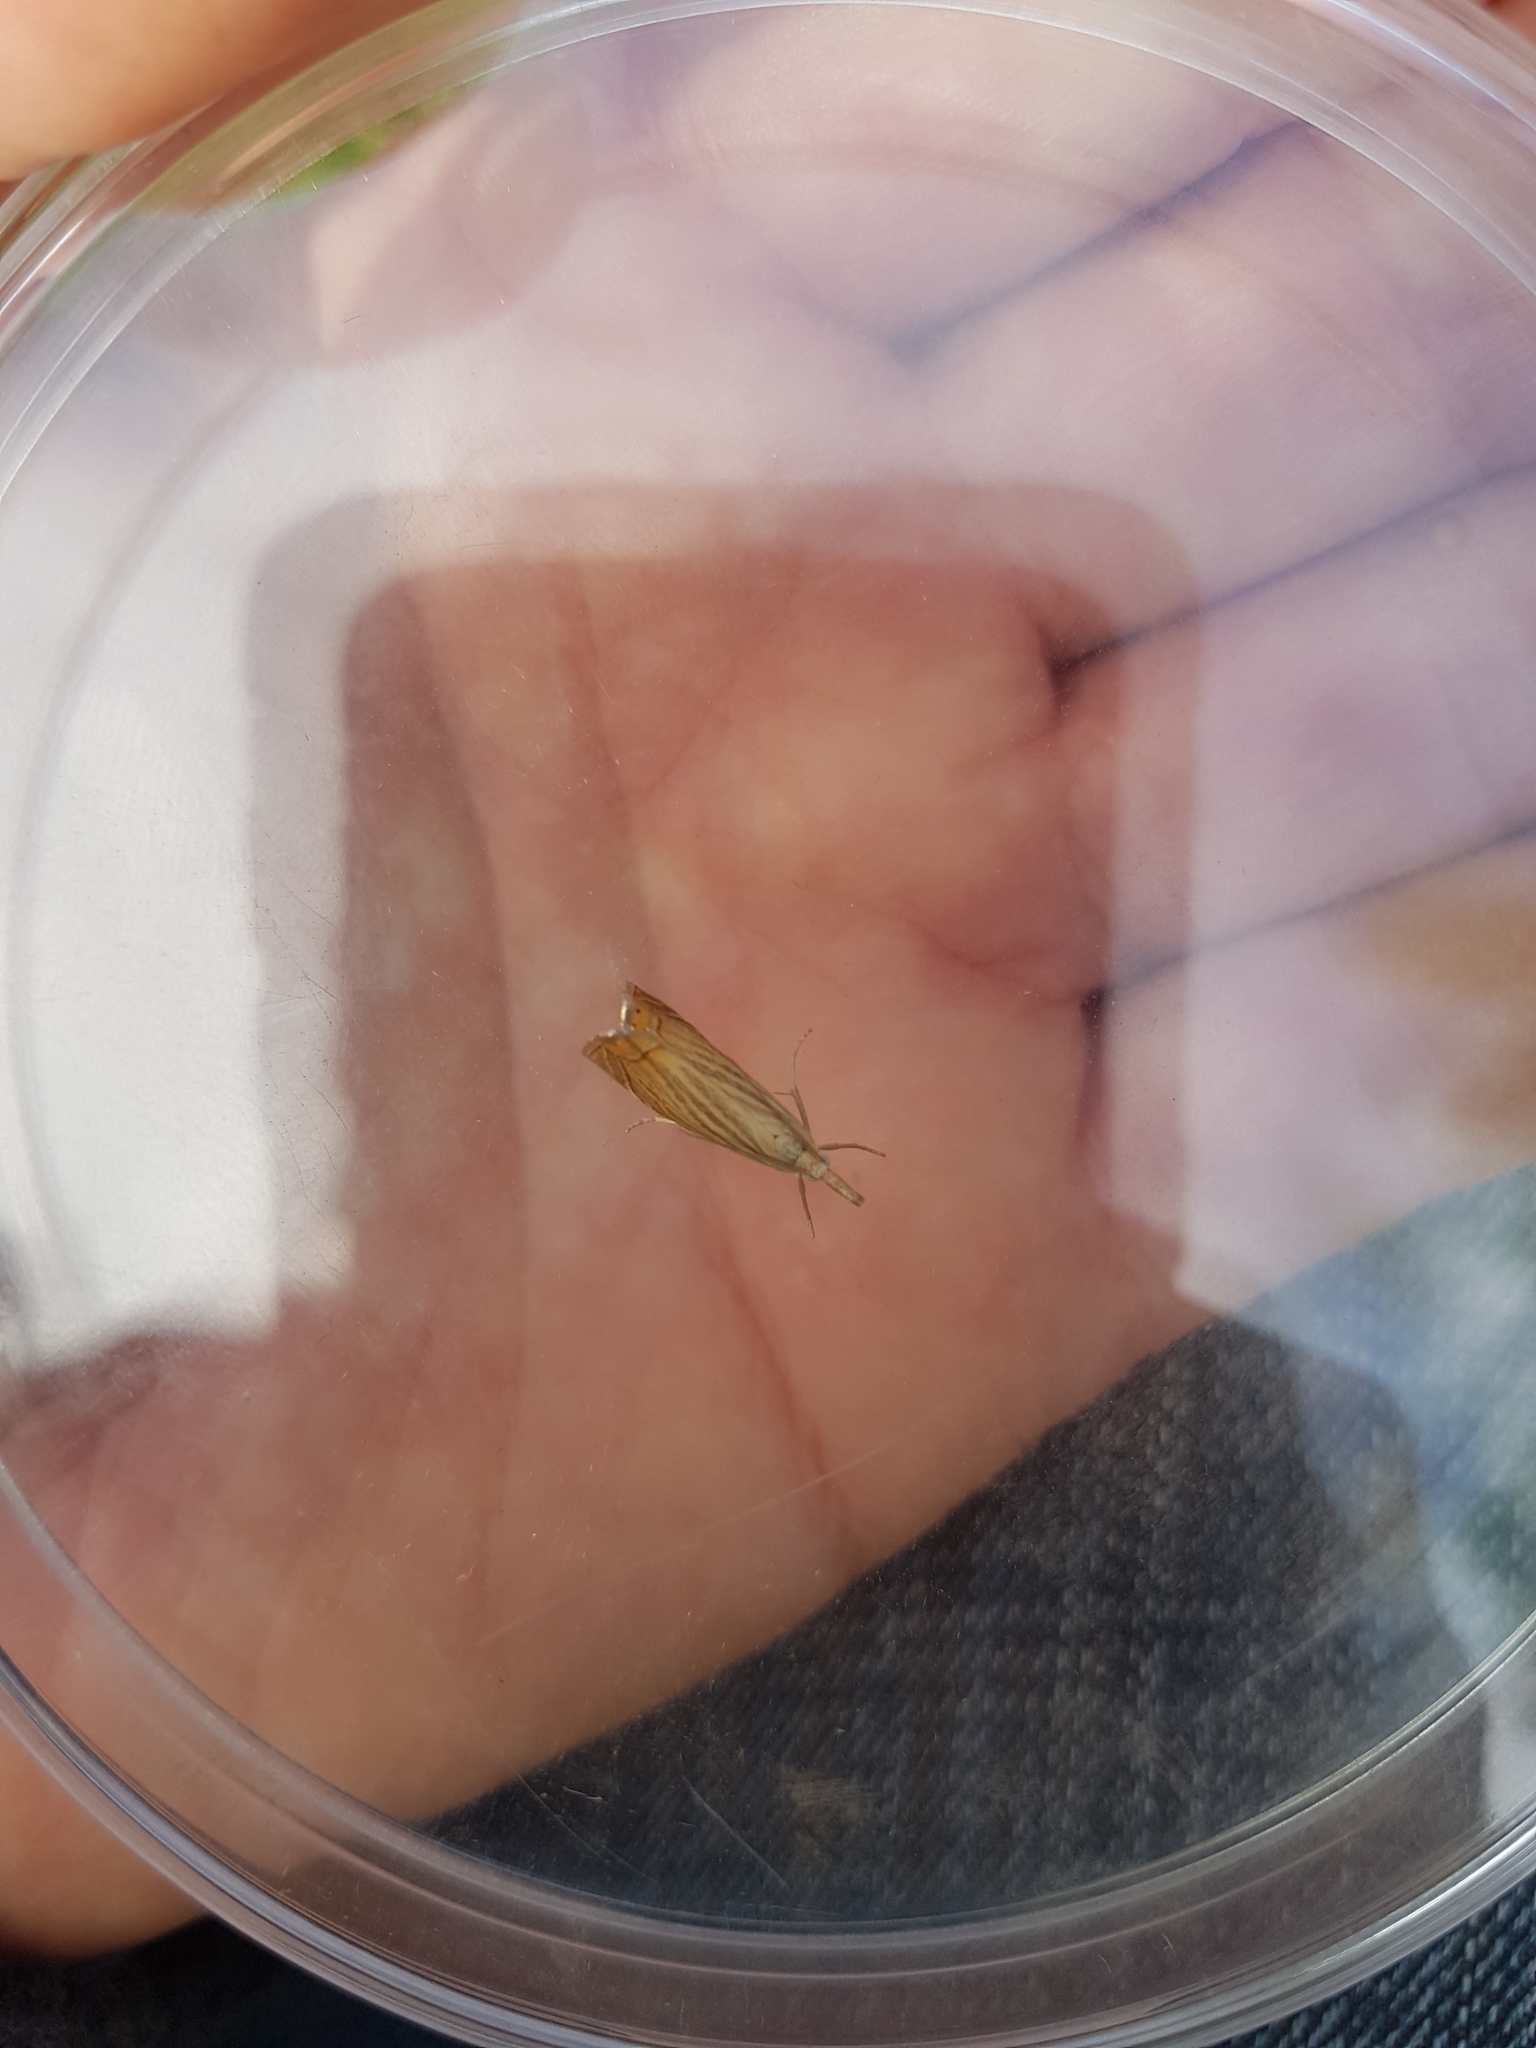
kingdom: Animalia
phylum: Arthropoda
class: Insecta
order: Lepidoptera
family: Crambidae
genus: Chrysoteuchia
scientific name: Chrysoteuchia culmella
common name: Garden grass-veneer
